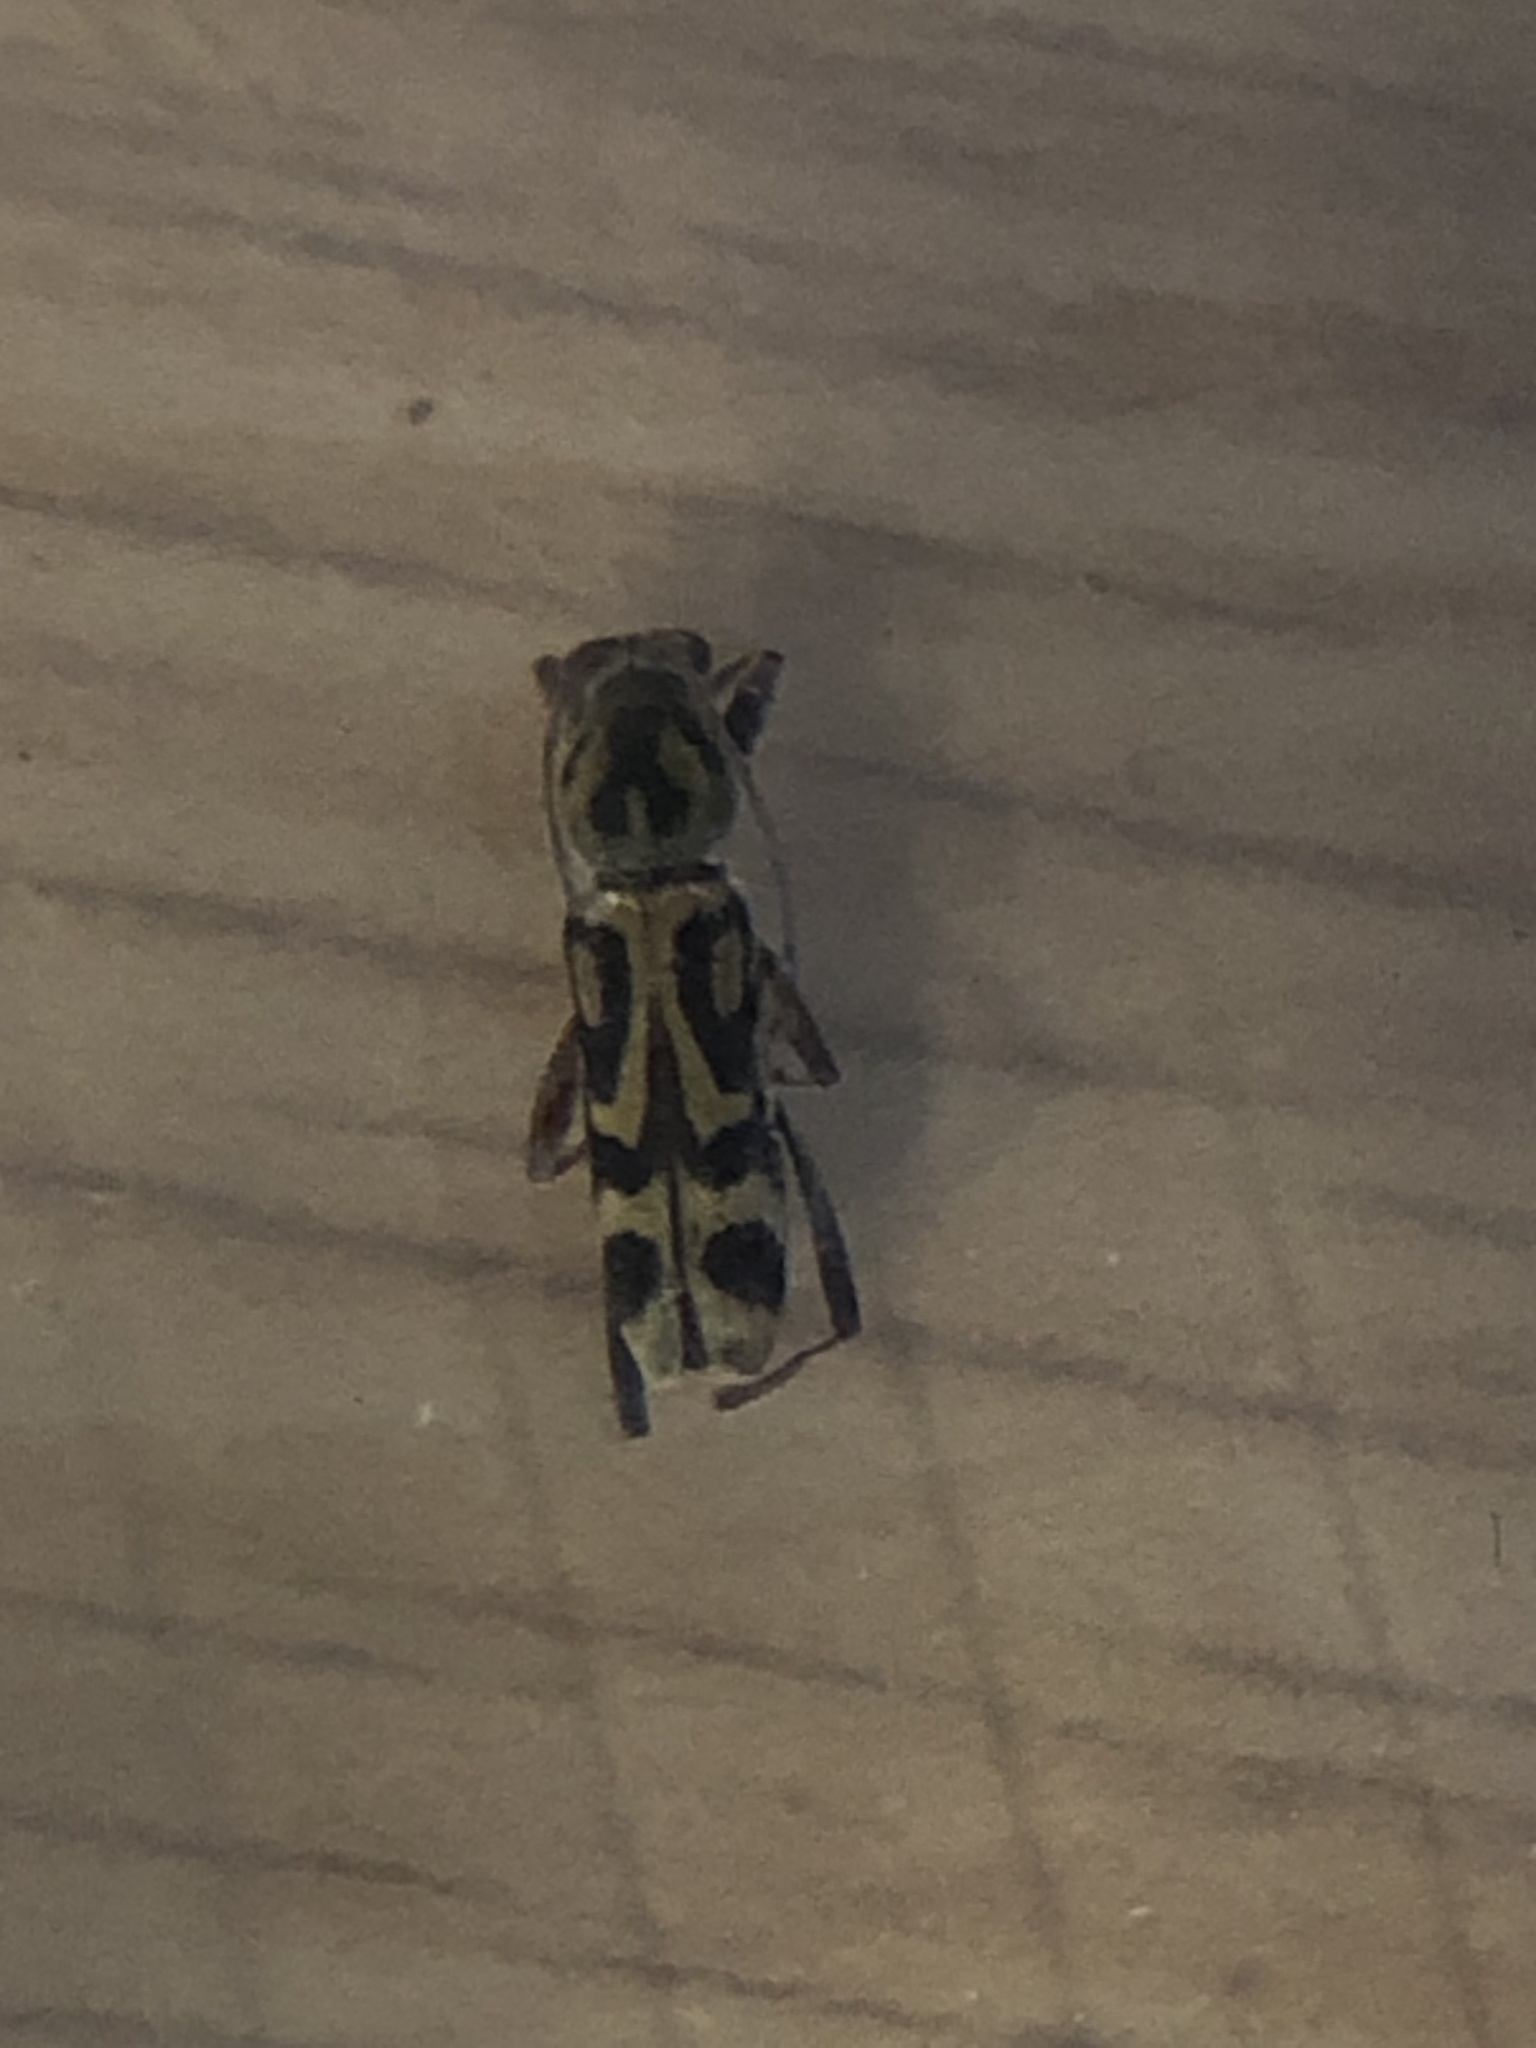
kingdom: Animalia
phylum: Arthropoda
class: Insecta
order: Coleoptera
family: Cerambycidae
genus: Chlorophorus
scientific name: Chlorophorus annularis
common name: Bamboo longhorn beetle
